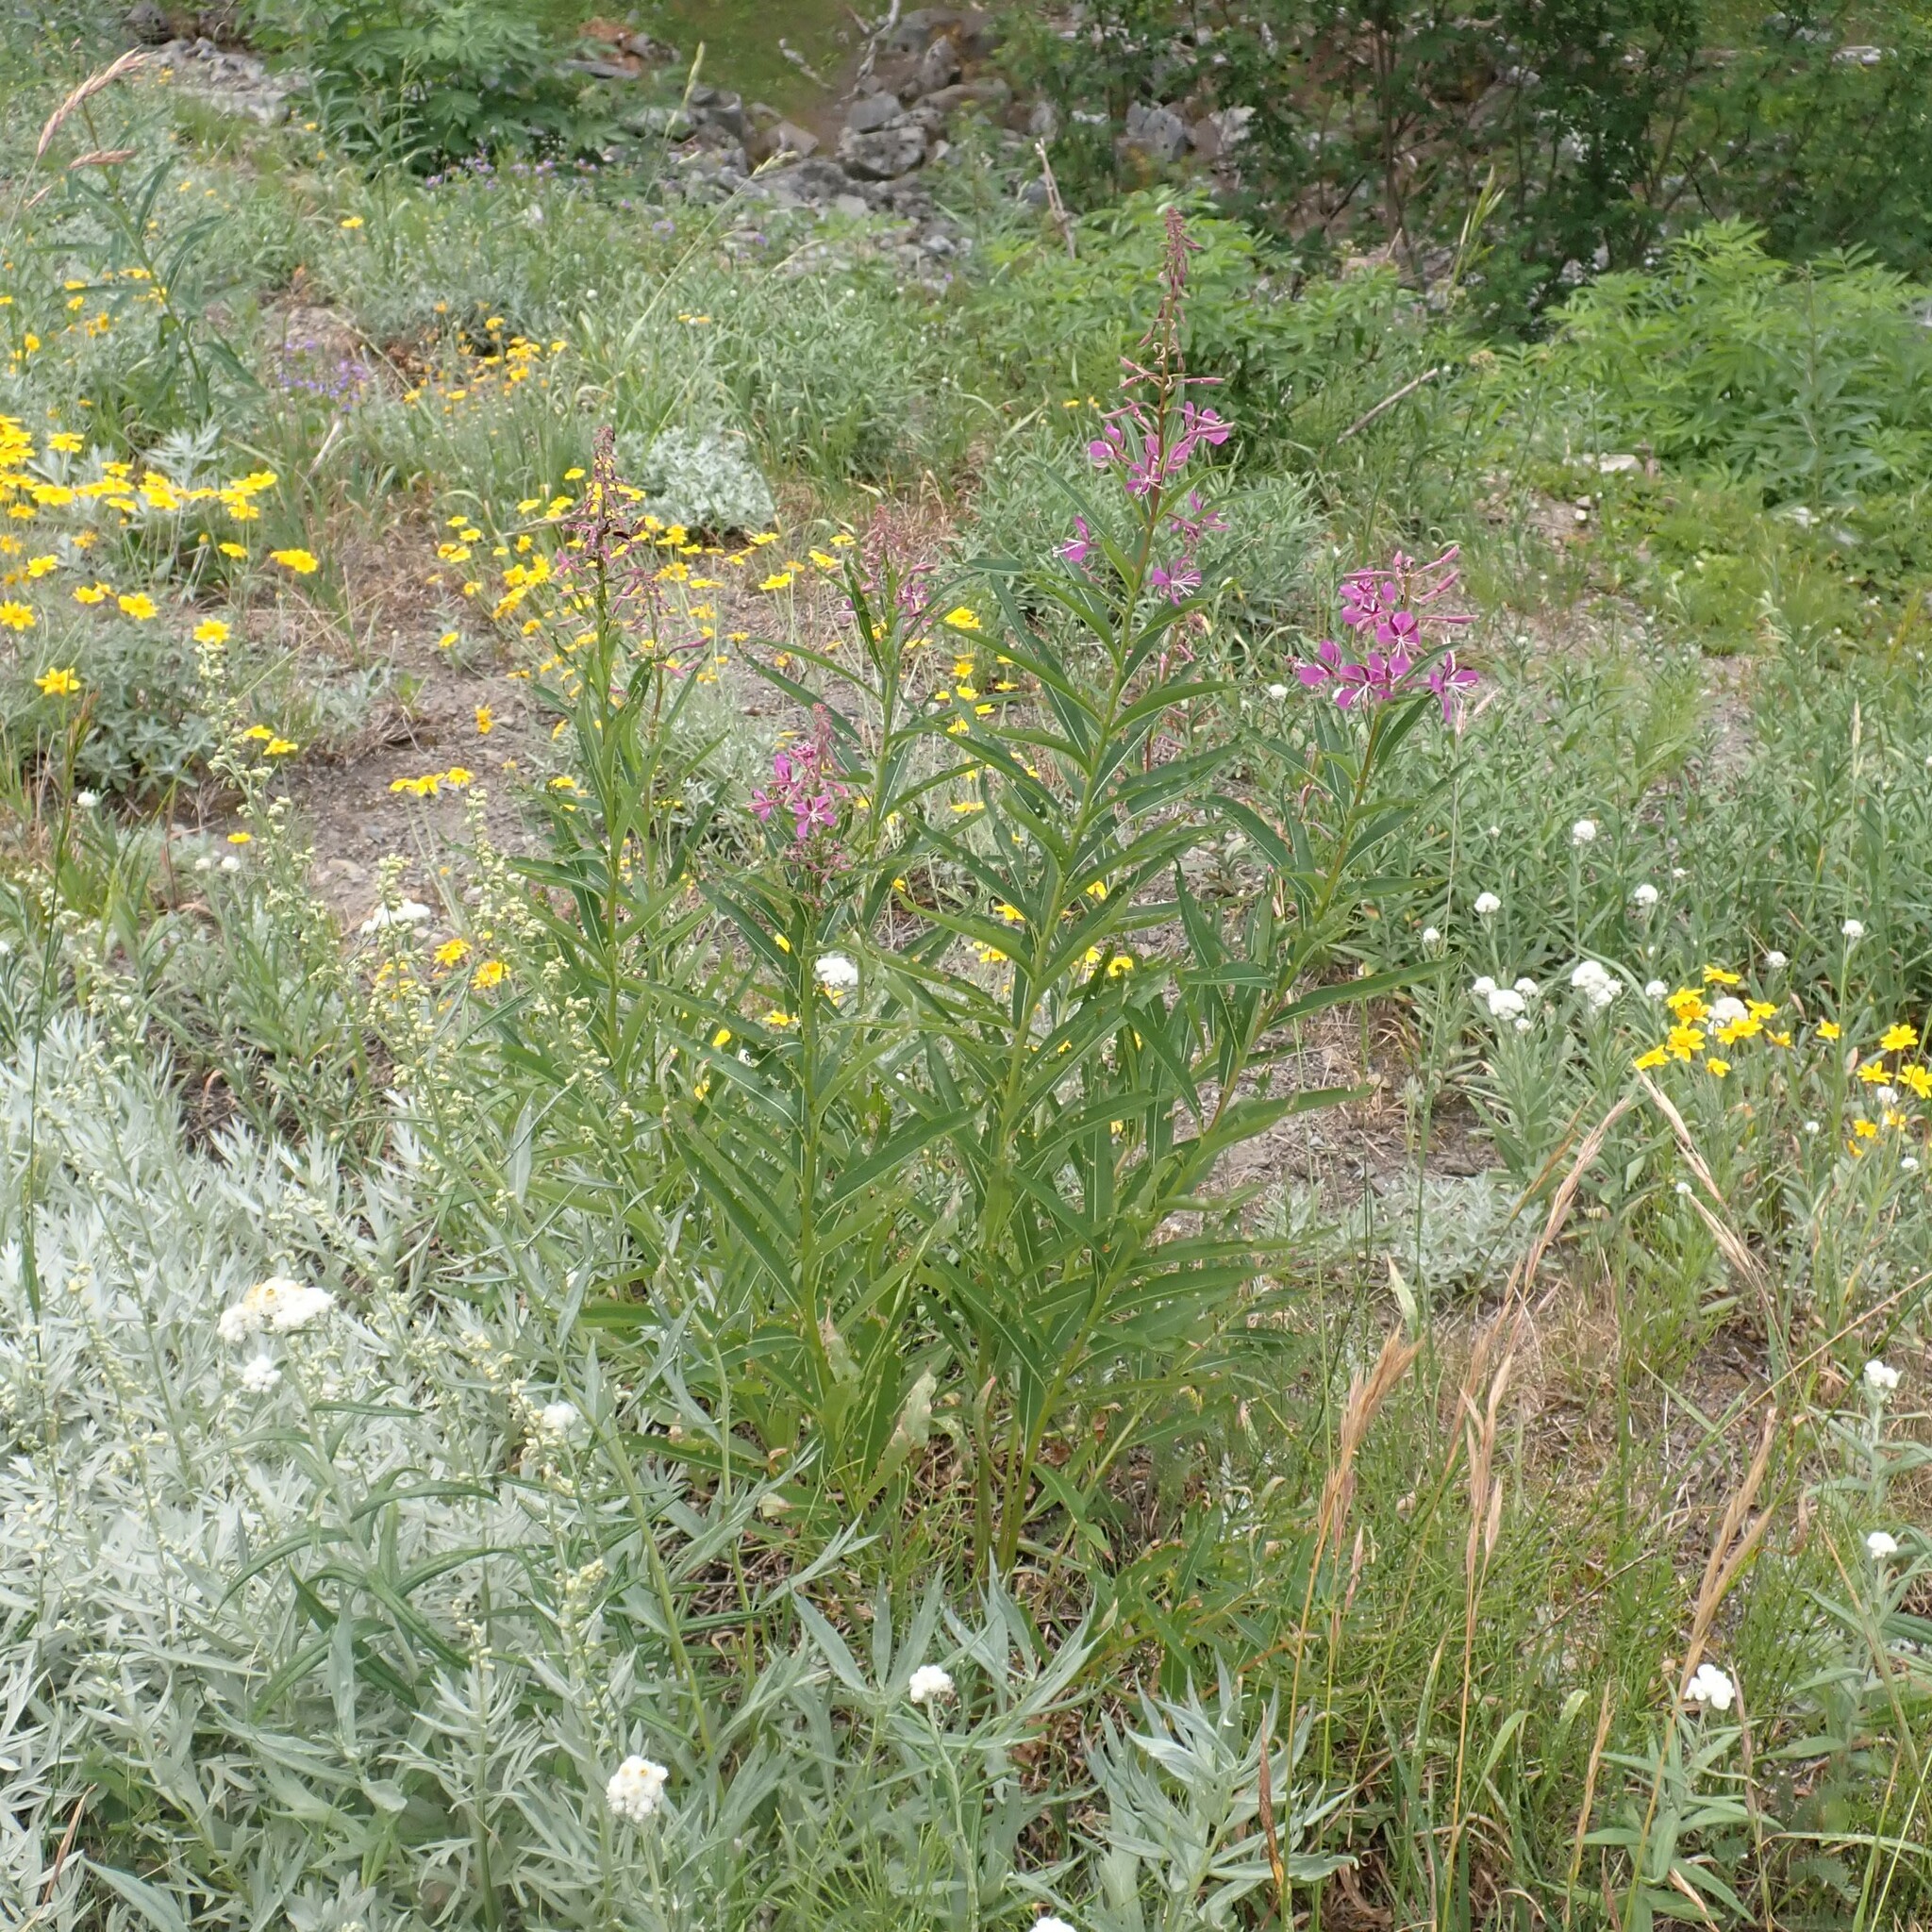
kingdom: Plantae
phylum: Tracheophyta
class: Magnoliopsida
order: Myrtales
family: Onagraceae
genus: Chamaenerion
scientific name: Chamaenerion angustifolium
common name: Fireweed
